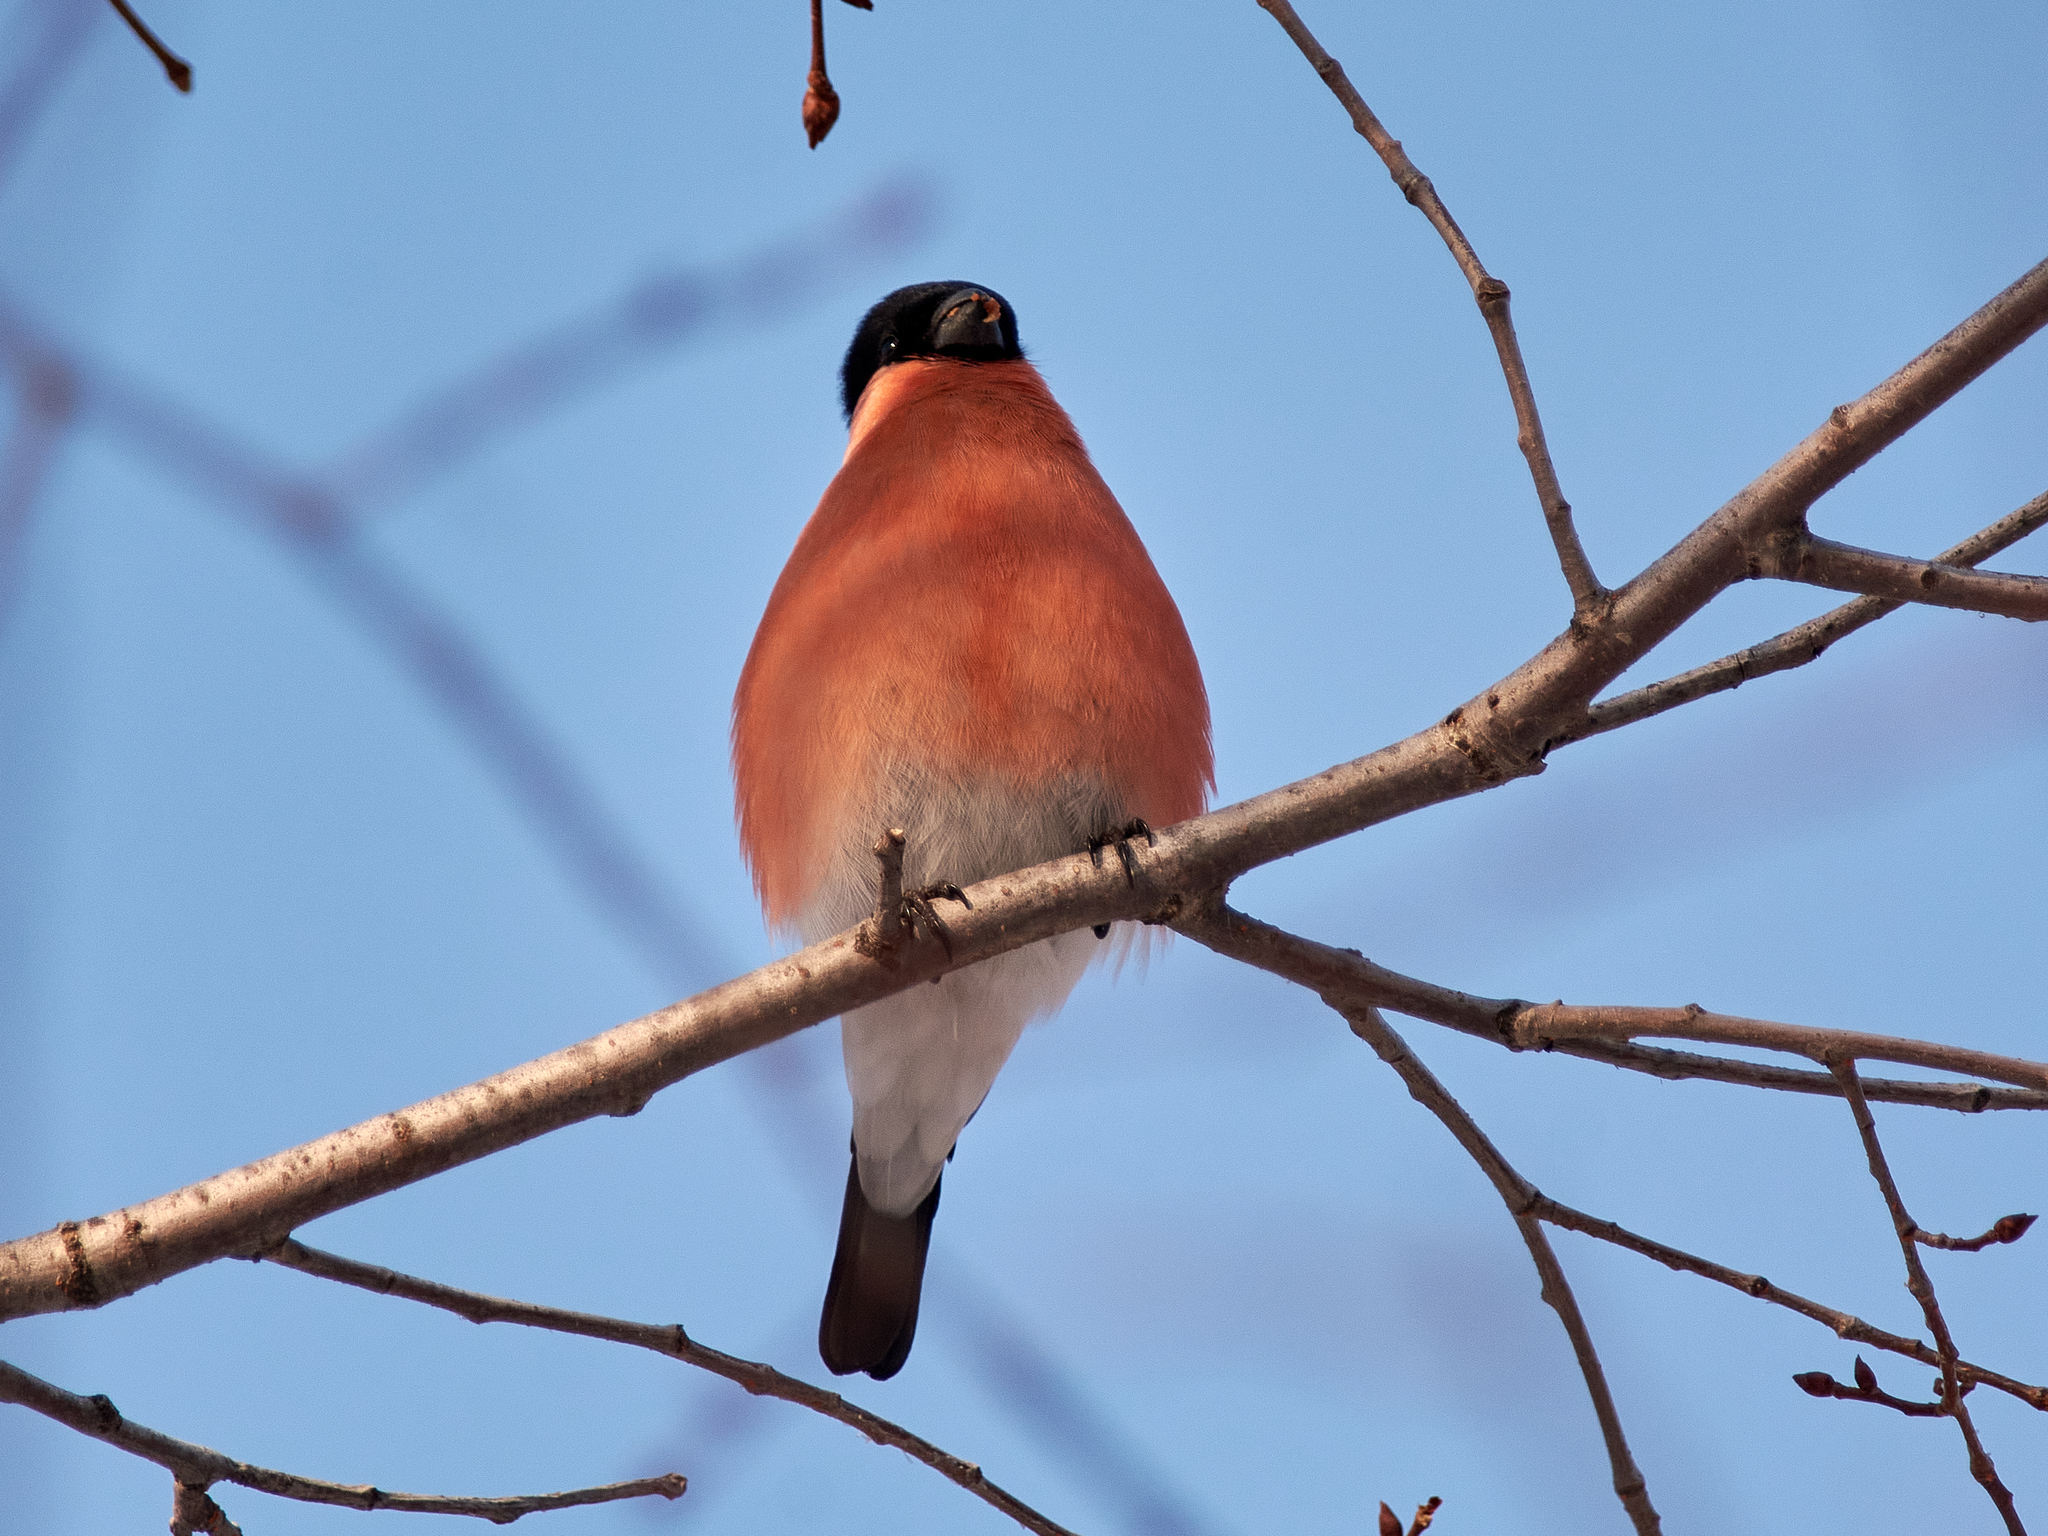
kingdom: Animalia
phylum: Chordata
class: Aves
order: Passeriformes
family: Fringillidae
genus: Pyrrhula
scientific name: Pyrrhula pyrrhula
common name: Eurasian bullfinch
